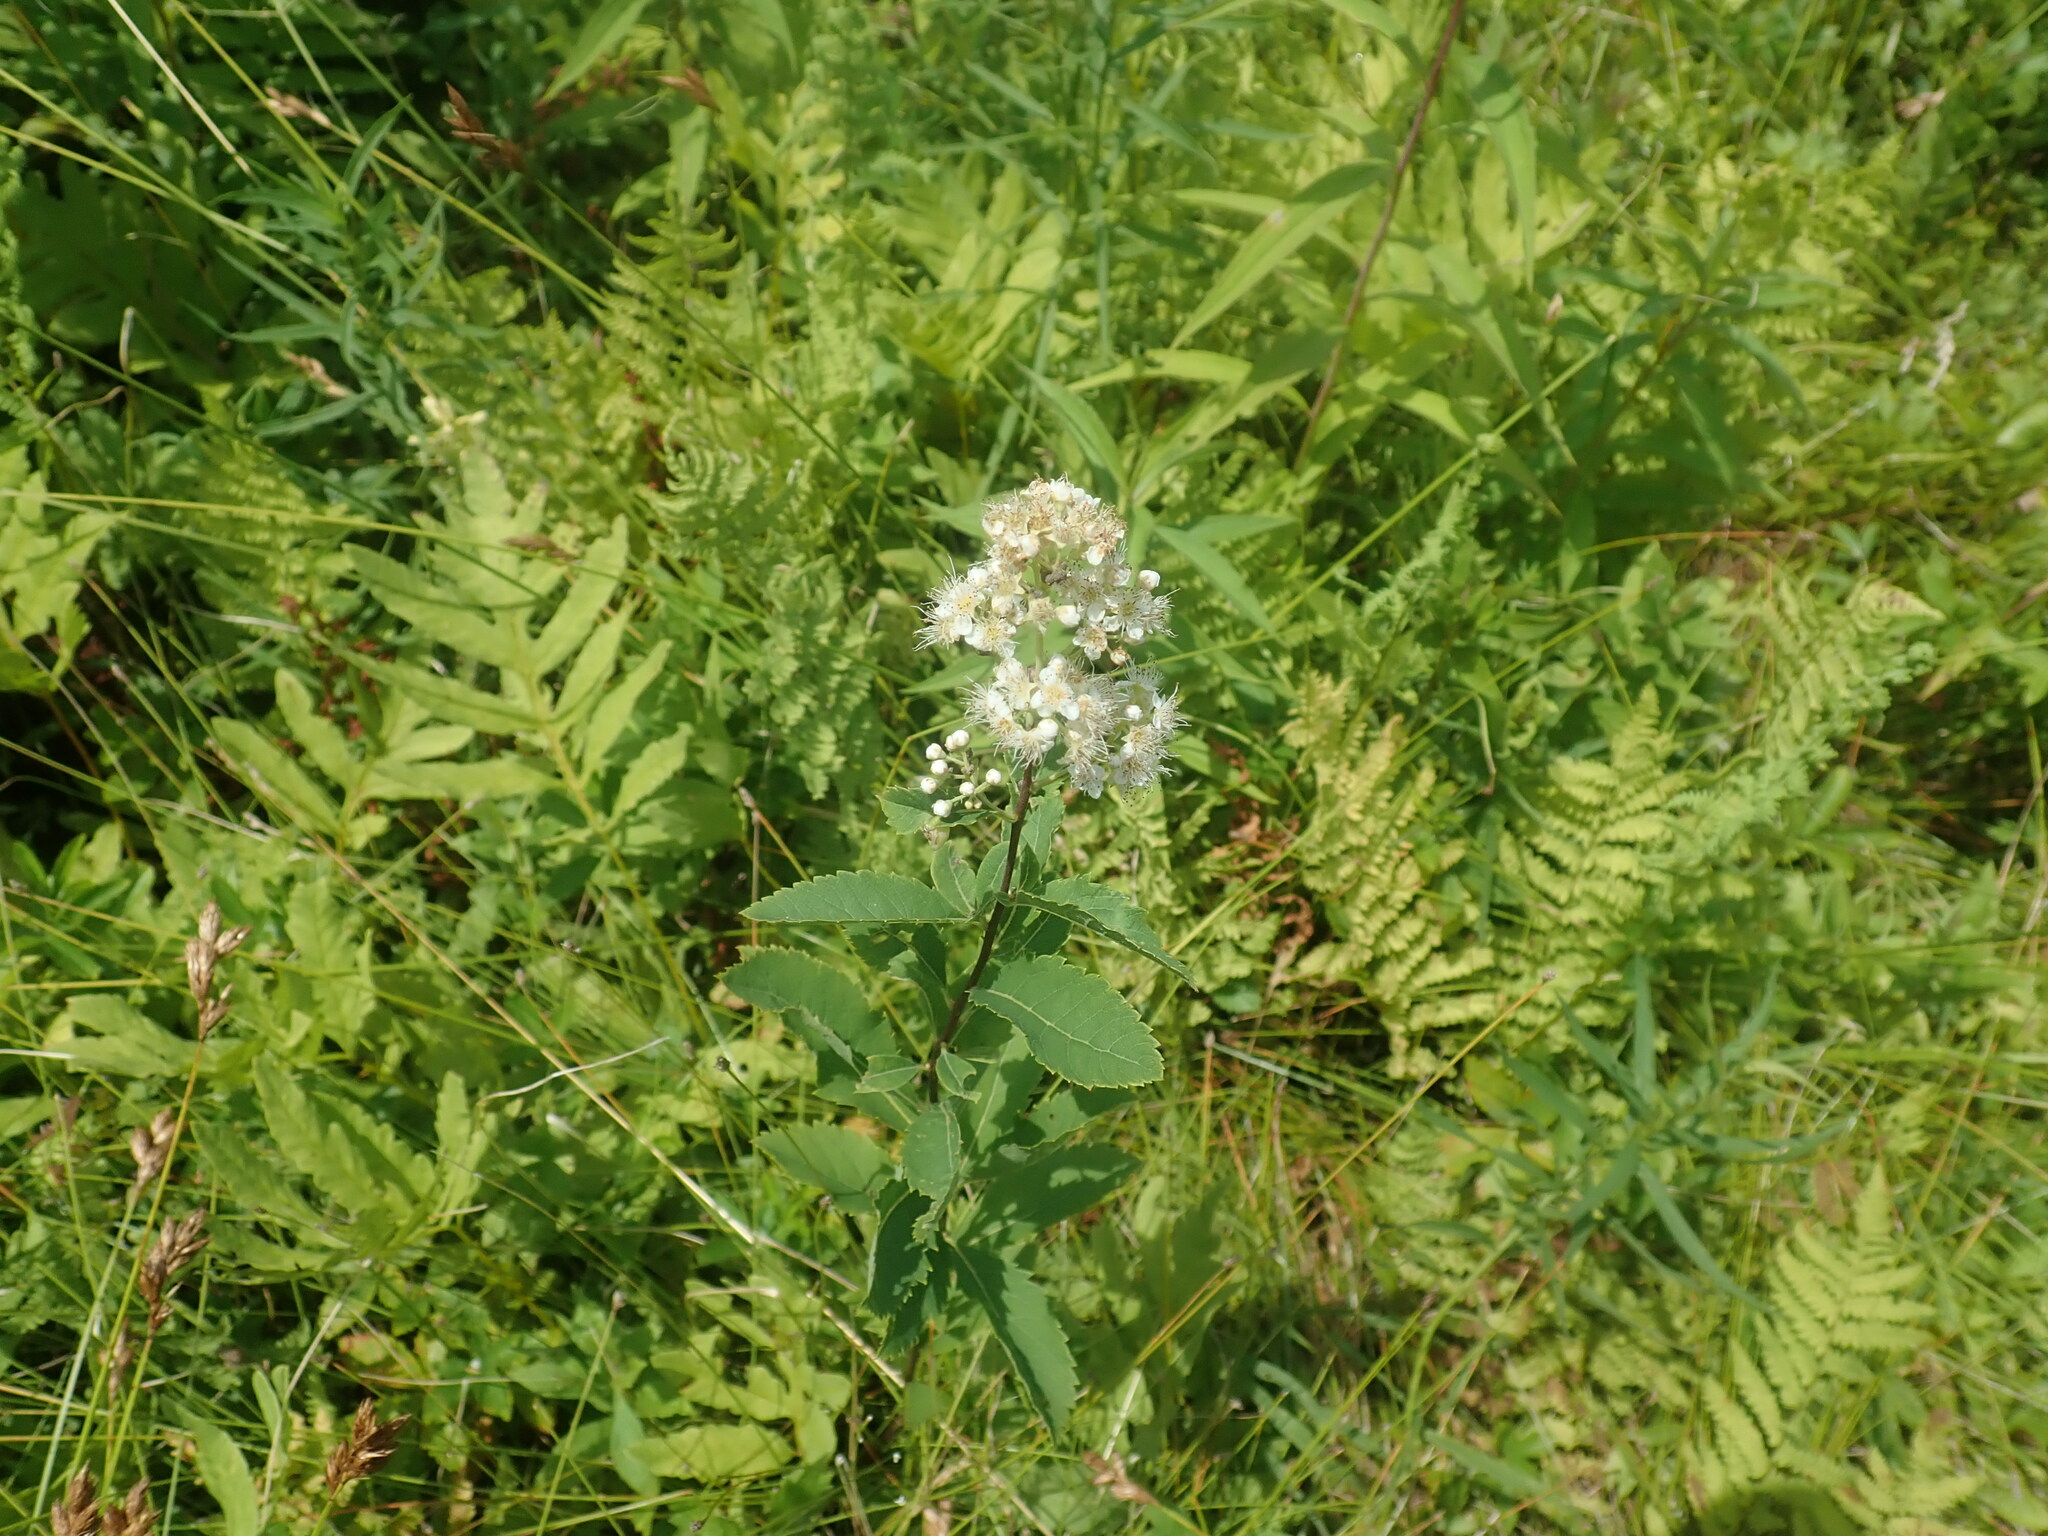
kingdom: Plantae
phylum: Tracheophyta
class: Magnoliopsida
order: Rosales
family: Rosaceae
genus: Spiraea
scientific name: Spiraea alba
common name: Pale bridewort
